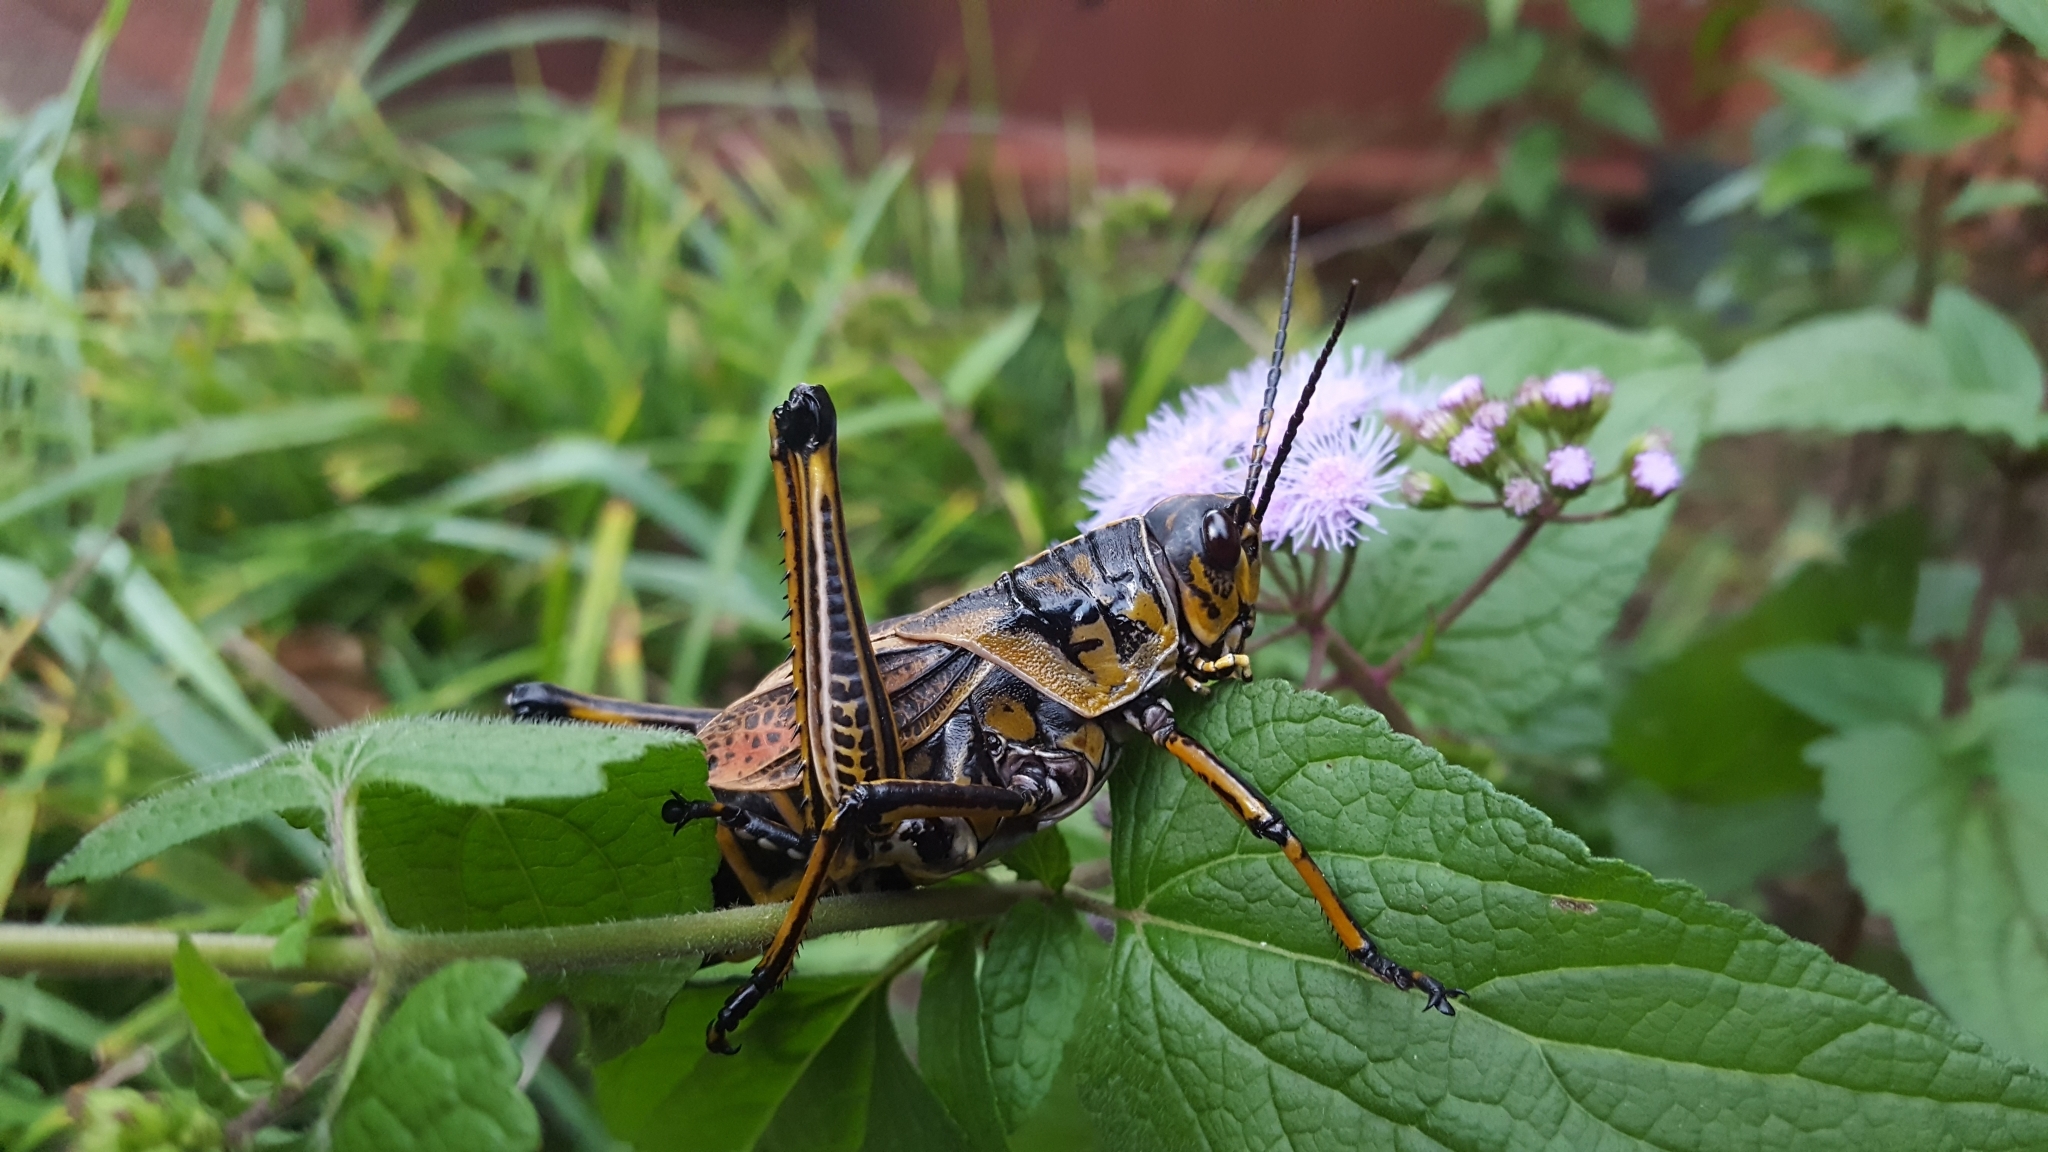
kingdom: Animalia
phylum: Arthropoda
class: Insecta
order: Orthoptera
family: Romaleidae
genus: Romalea
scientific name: Romalea microptera
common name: Eastern lubber grasshopper
